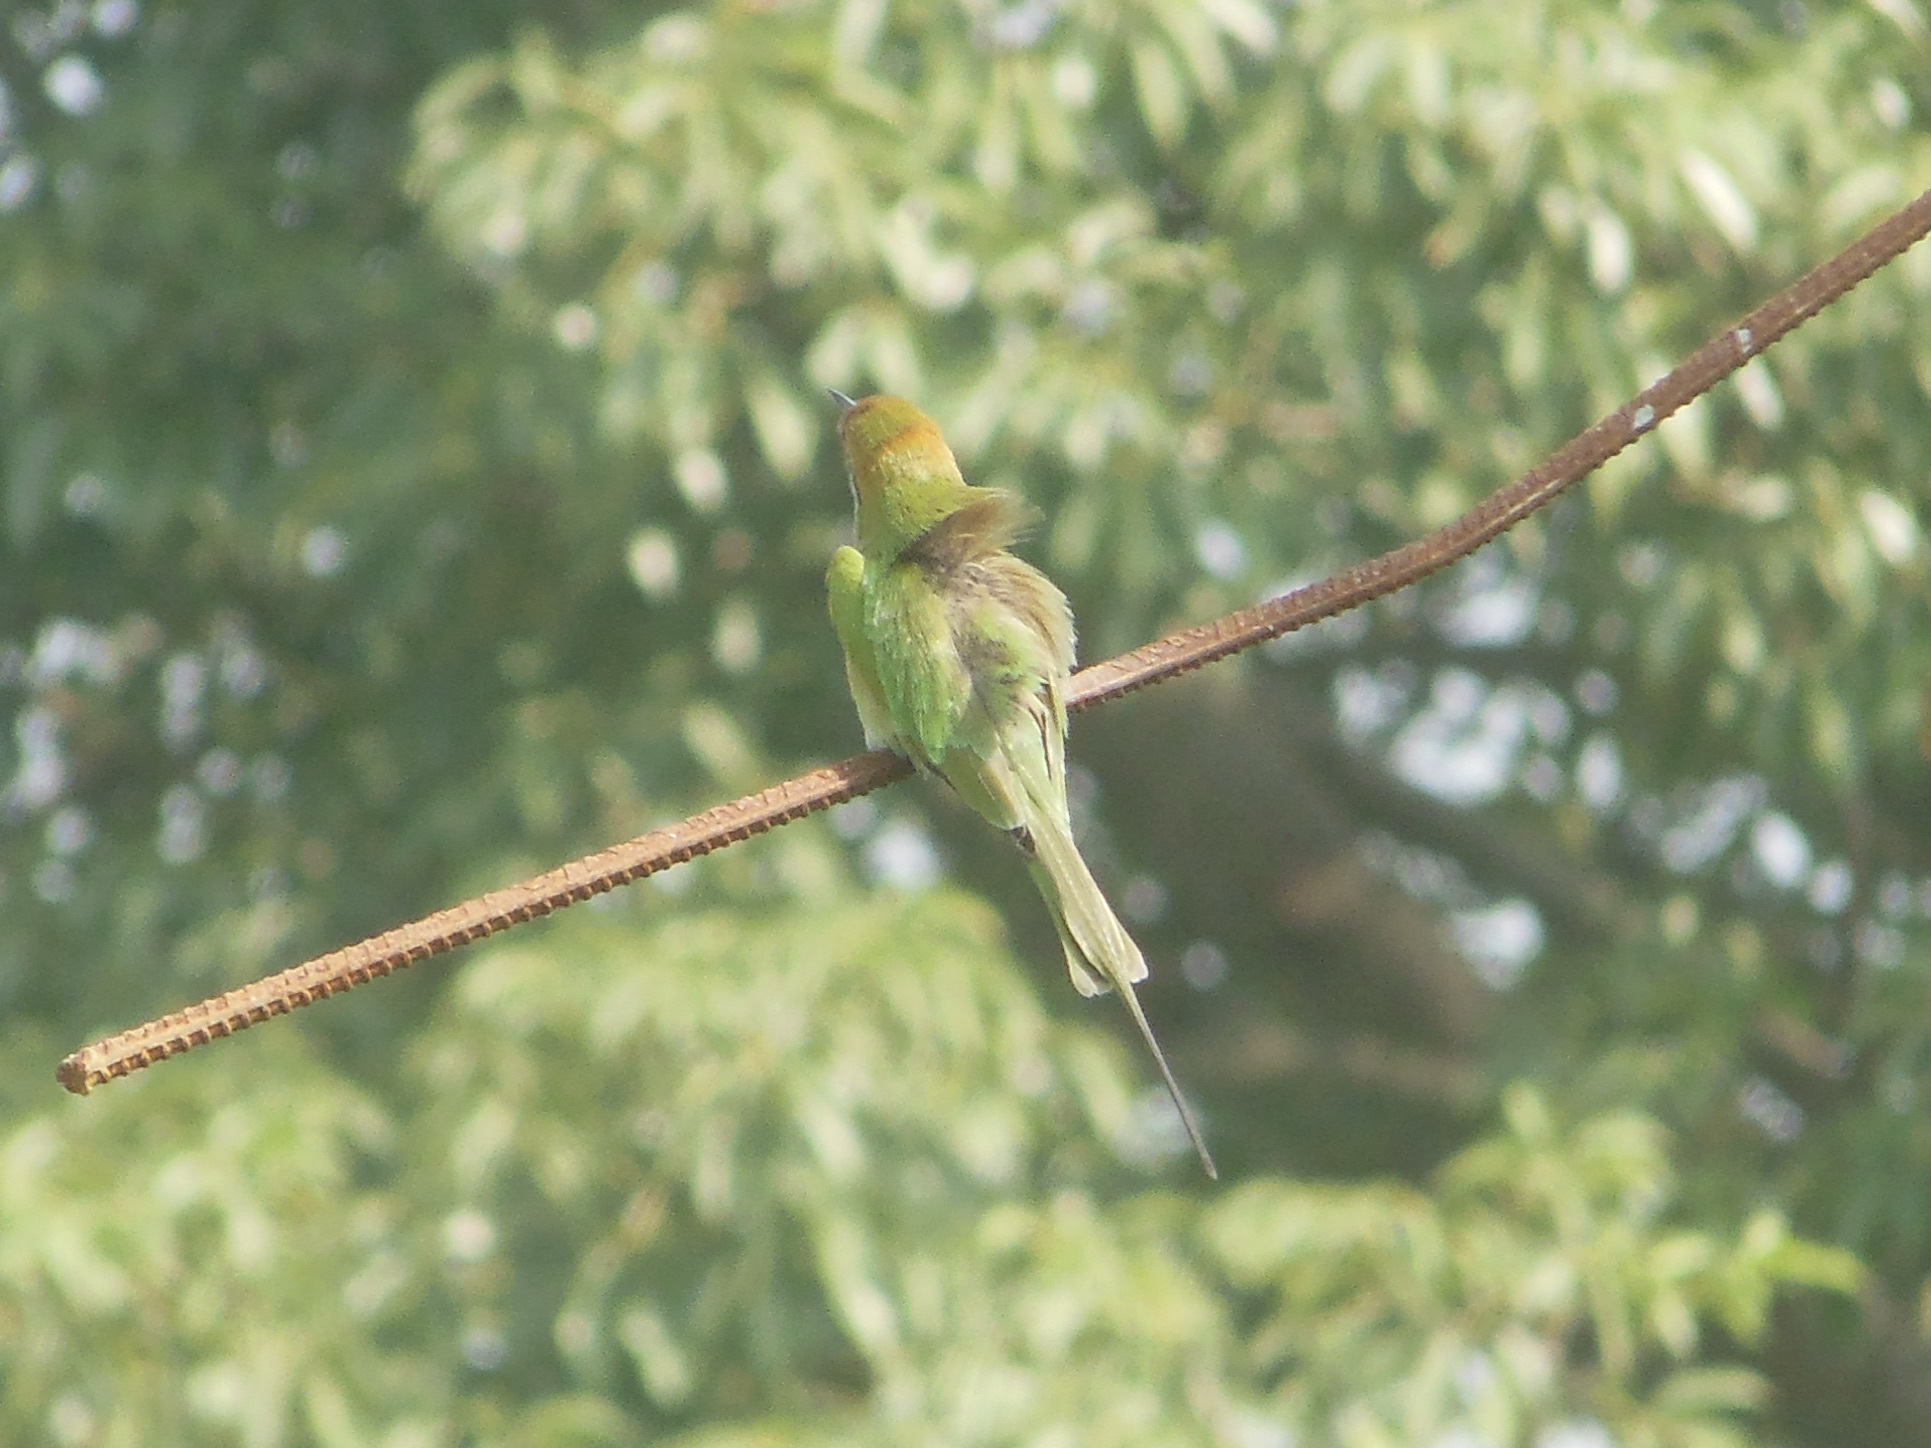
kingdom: Animalia
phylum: Chordata
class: Aves
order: Coraciiformes
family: Meropidae
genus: Merops
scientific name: Merops orientalis
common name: Green bee-eater
